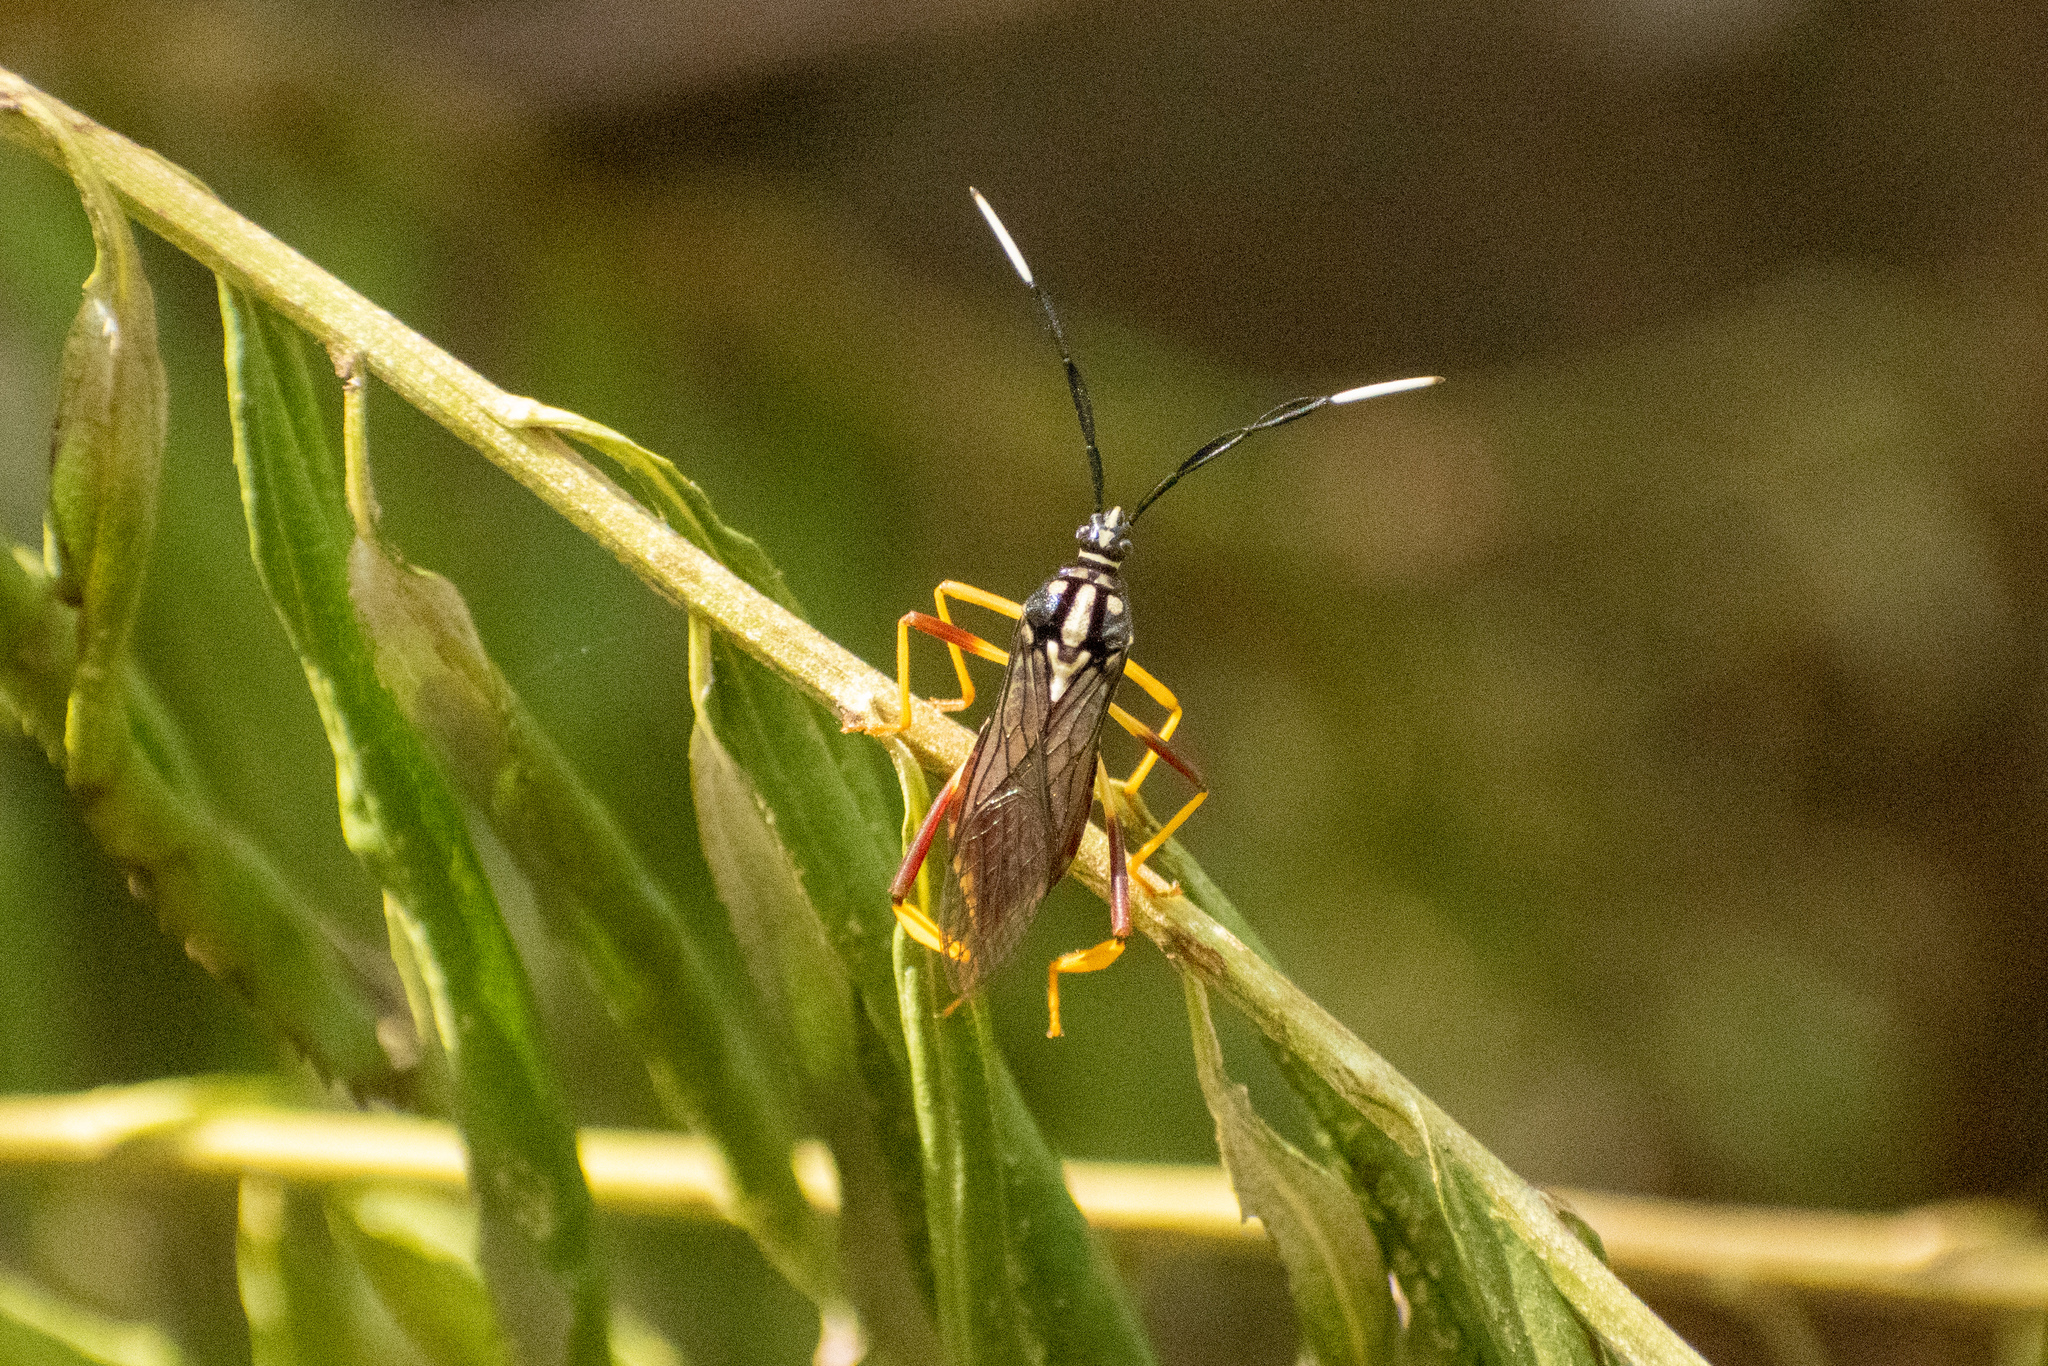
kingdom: Animalia
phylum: Arthropoda
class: Insecta
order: Hemiptera
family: Coreidae
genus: Holhymenia
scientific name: Holhymenia histrio
